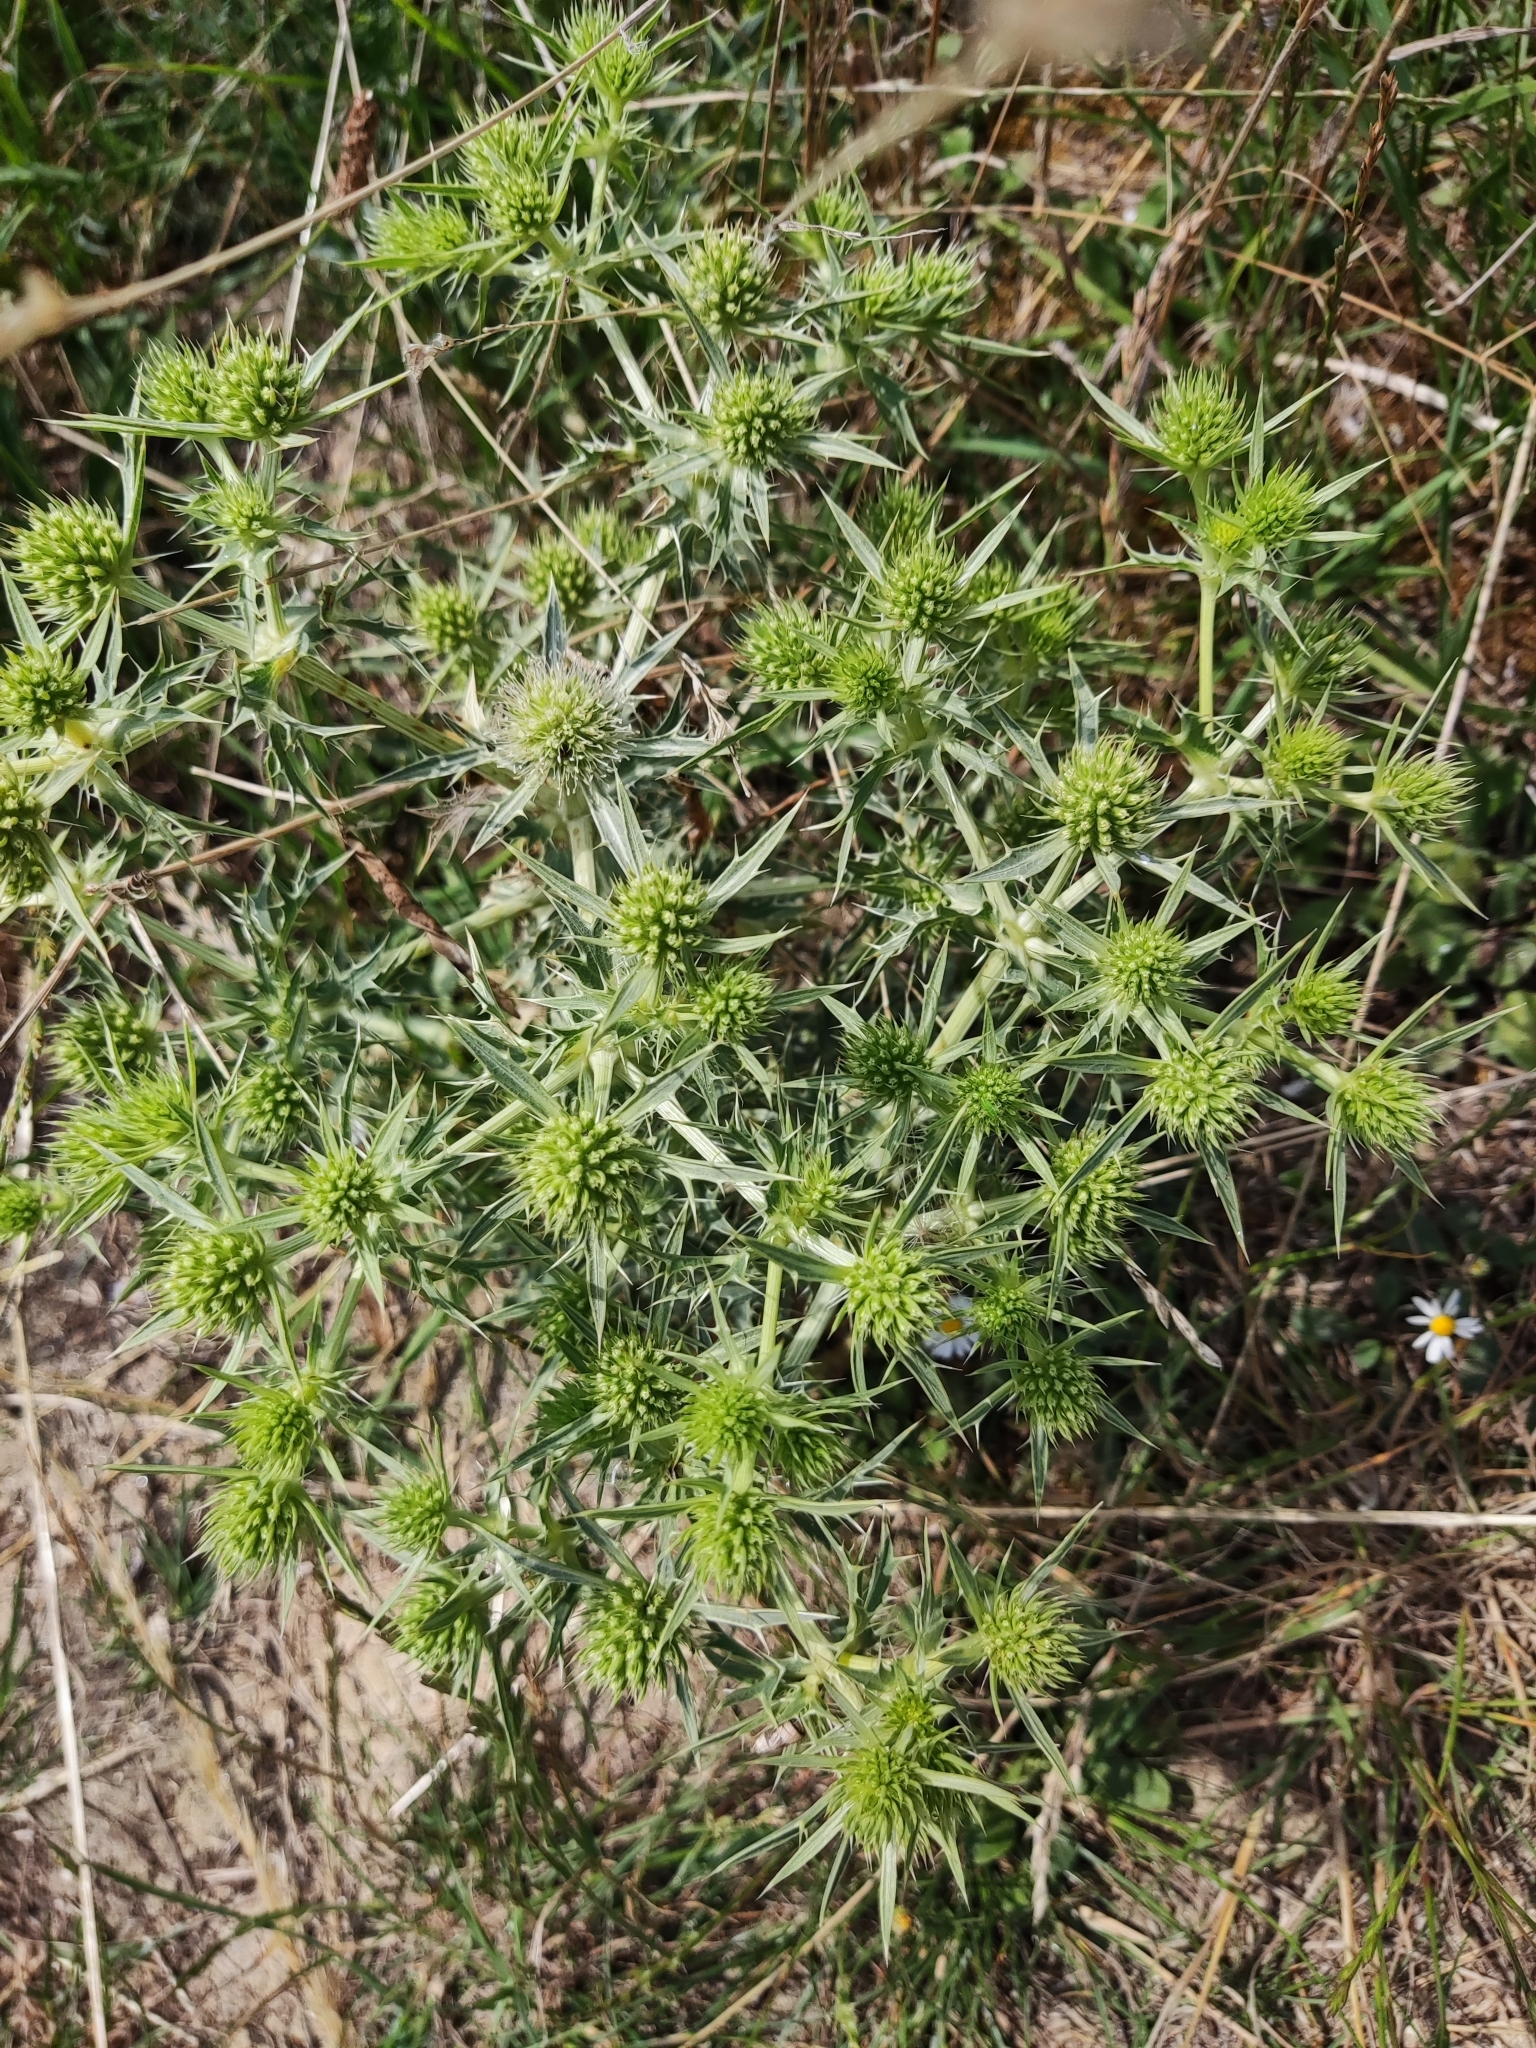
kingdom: Plantae
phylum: Tracheophyta
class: Magnoliopsida
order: Apiales
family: Apiaceae
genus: Eryngium
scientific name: Eryngium campestre
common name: Field eryngo
